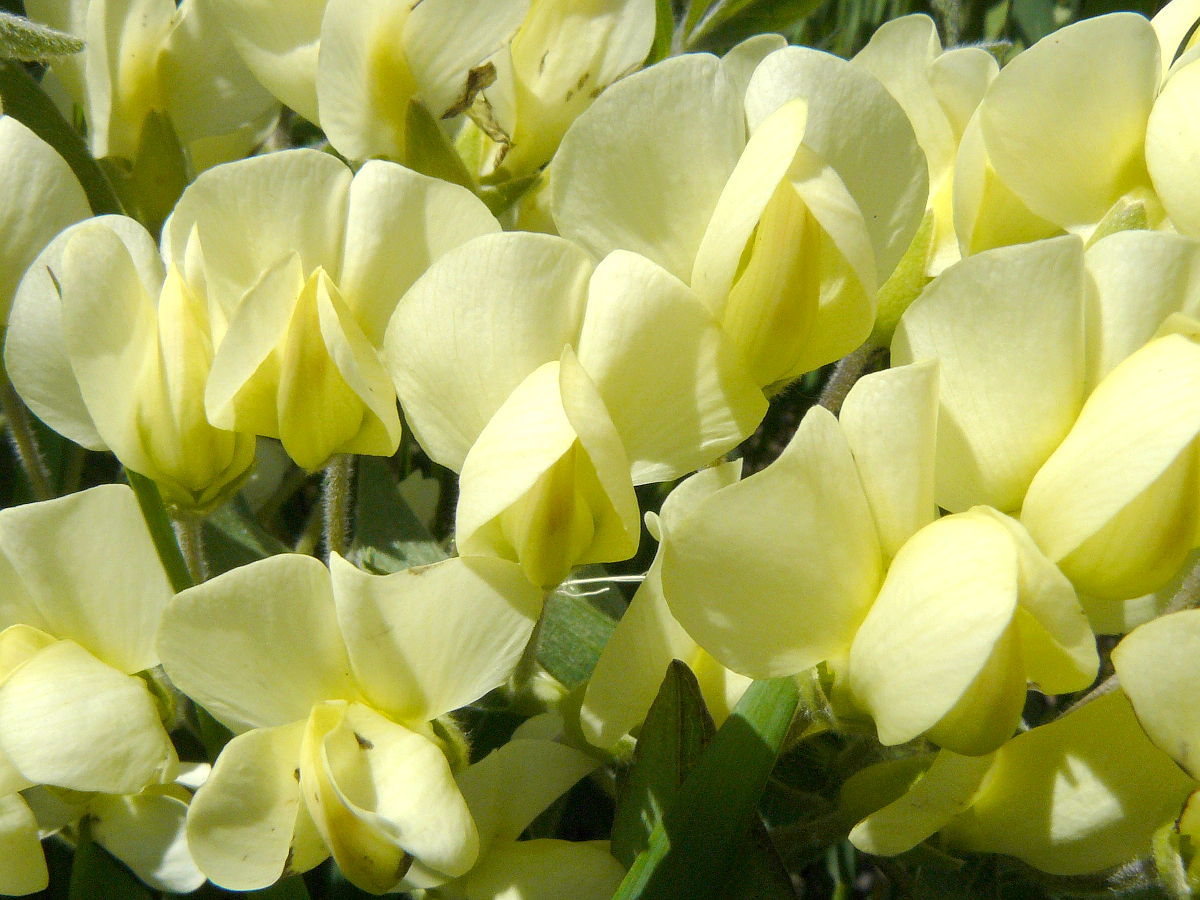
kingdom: Plantae
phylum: Tracheophyta
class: Magnoliopsida
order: Fabales
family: Fabaceae
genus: Baptisia
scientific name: Baptisia bracteata
